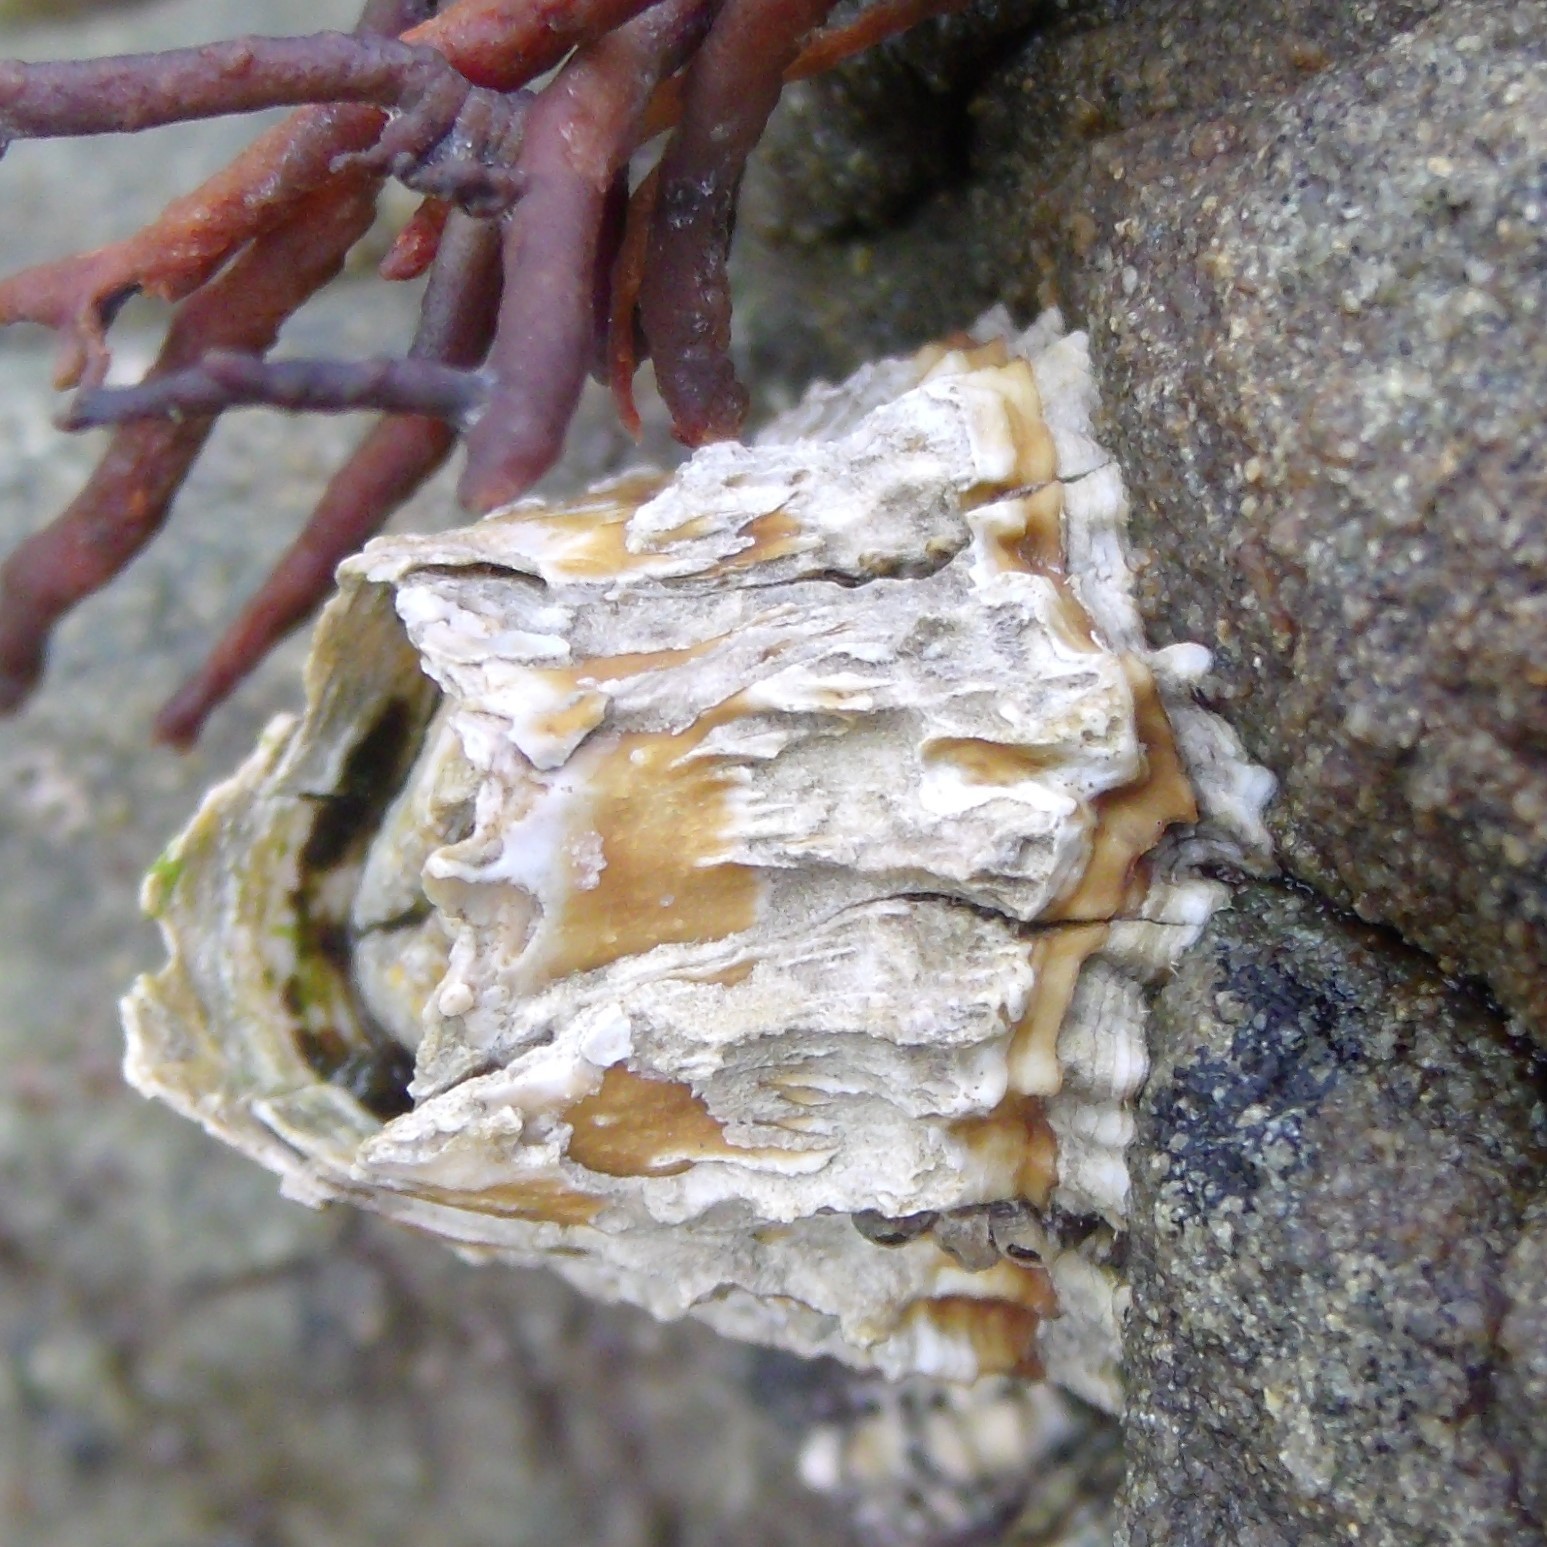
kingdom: Animalia
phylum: Arthropoda
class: Maxillopoda
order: Sessilia
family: Tetraclitidae
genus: Epopella
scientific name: Epopella plicata
